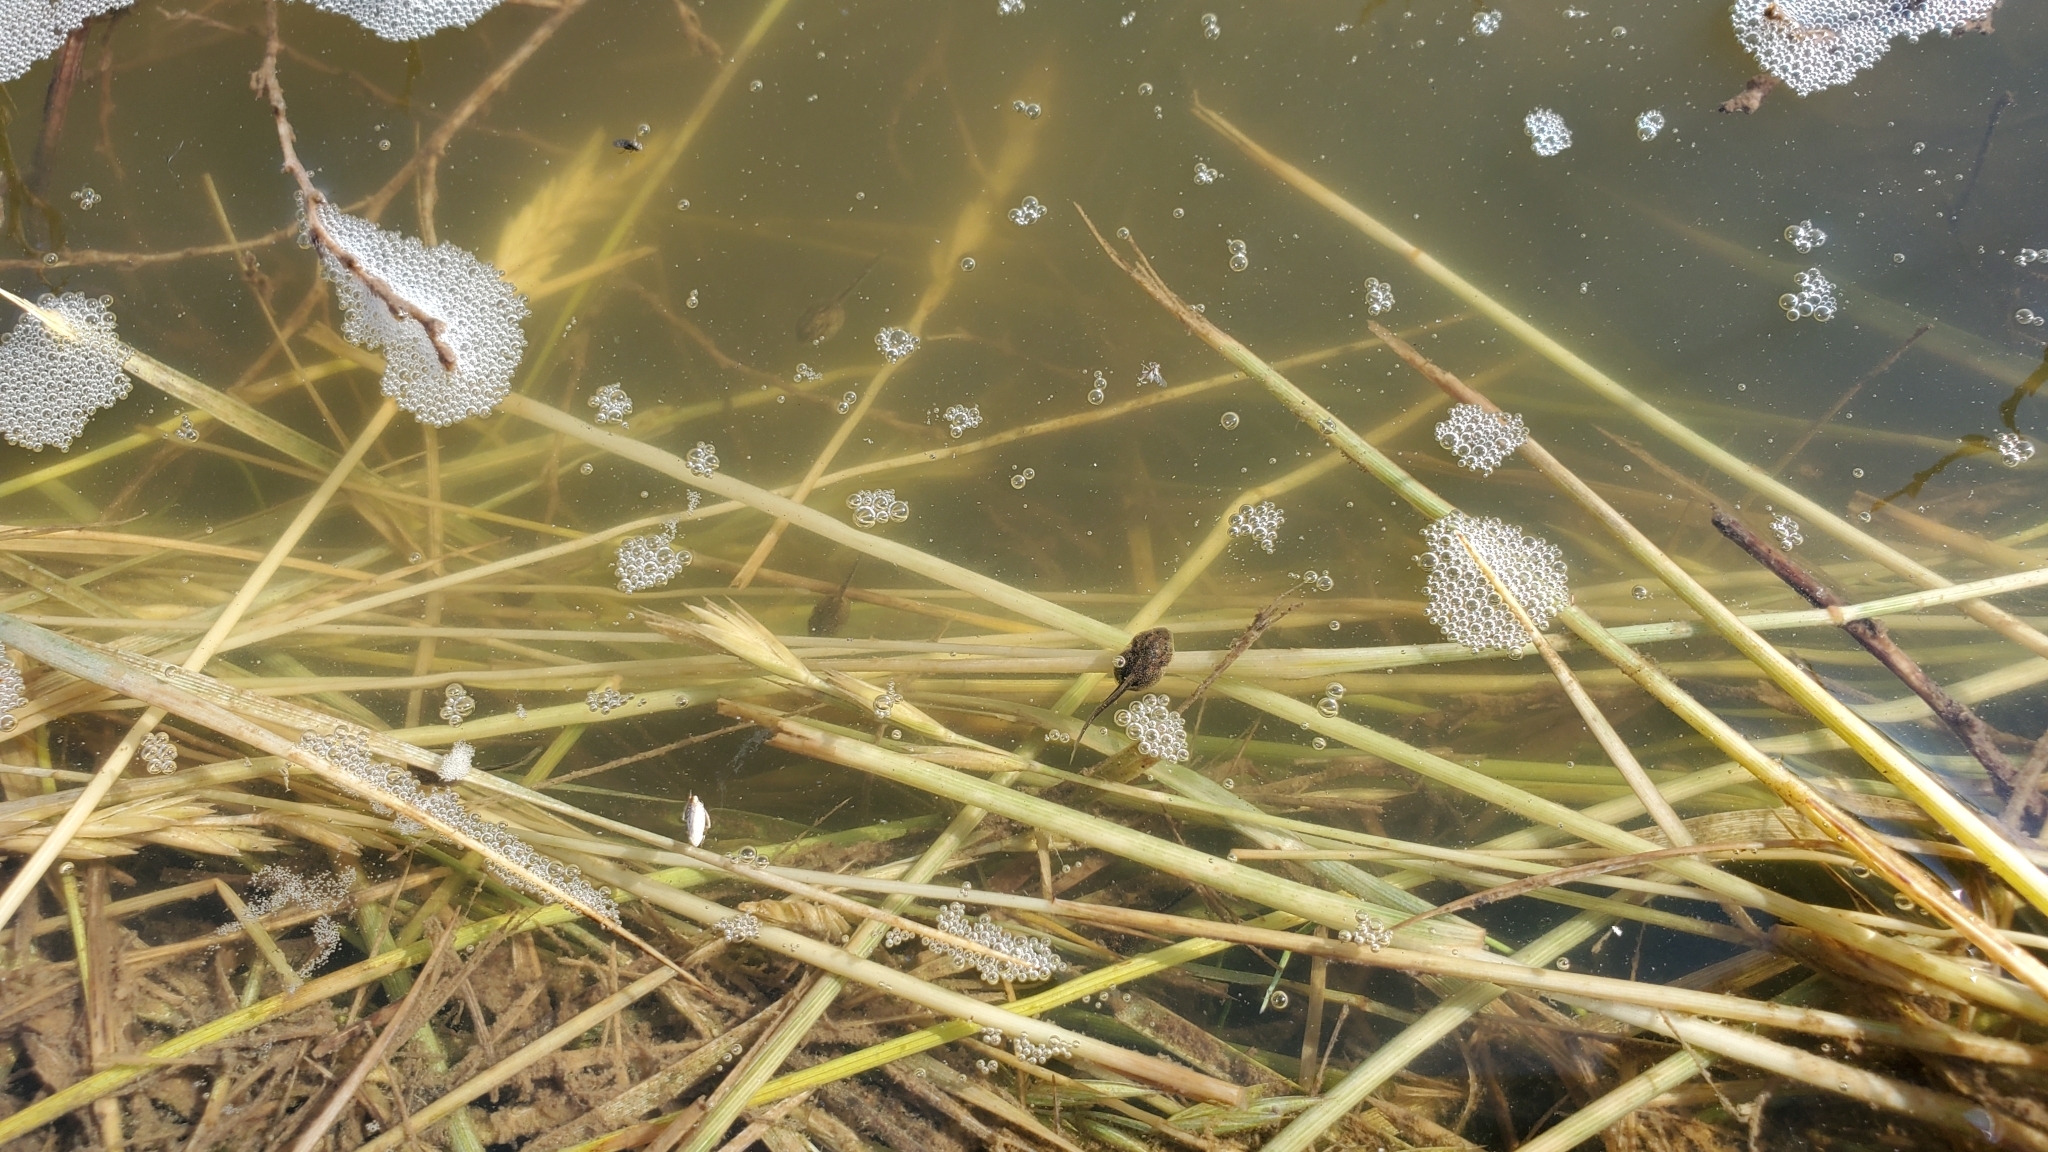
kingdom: Animalia
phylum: Chordata
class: Amphibia
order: Anura
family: Hylidae
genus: Pseudacris
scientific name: Pseudacris maculata
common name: Boreal chorus frog
